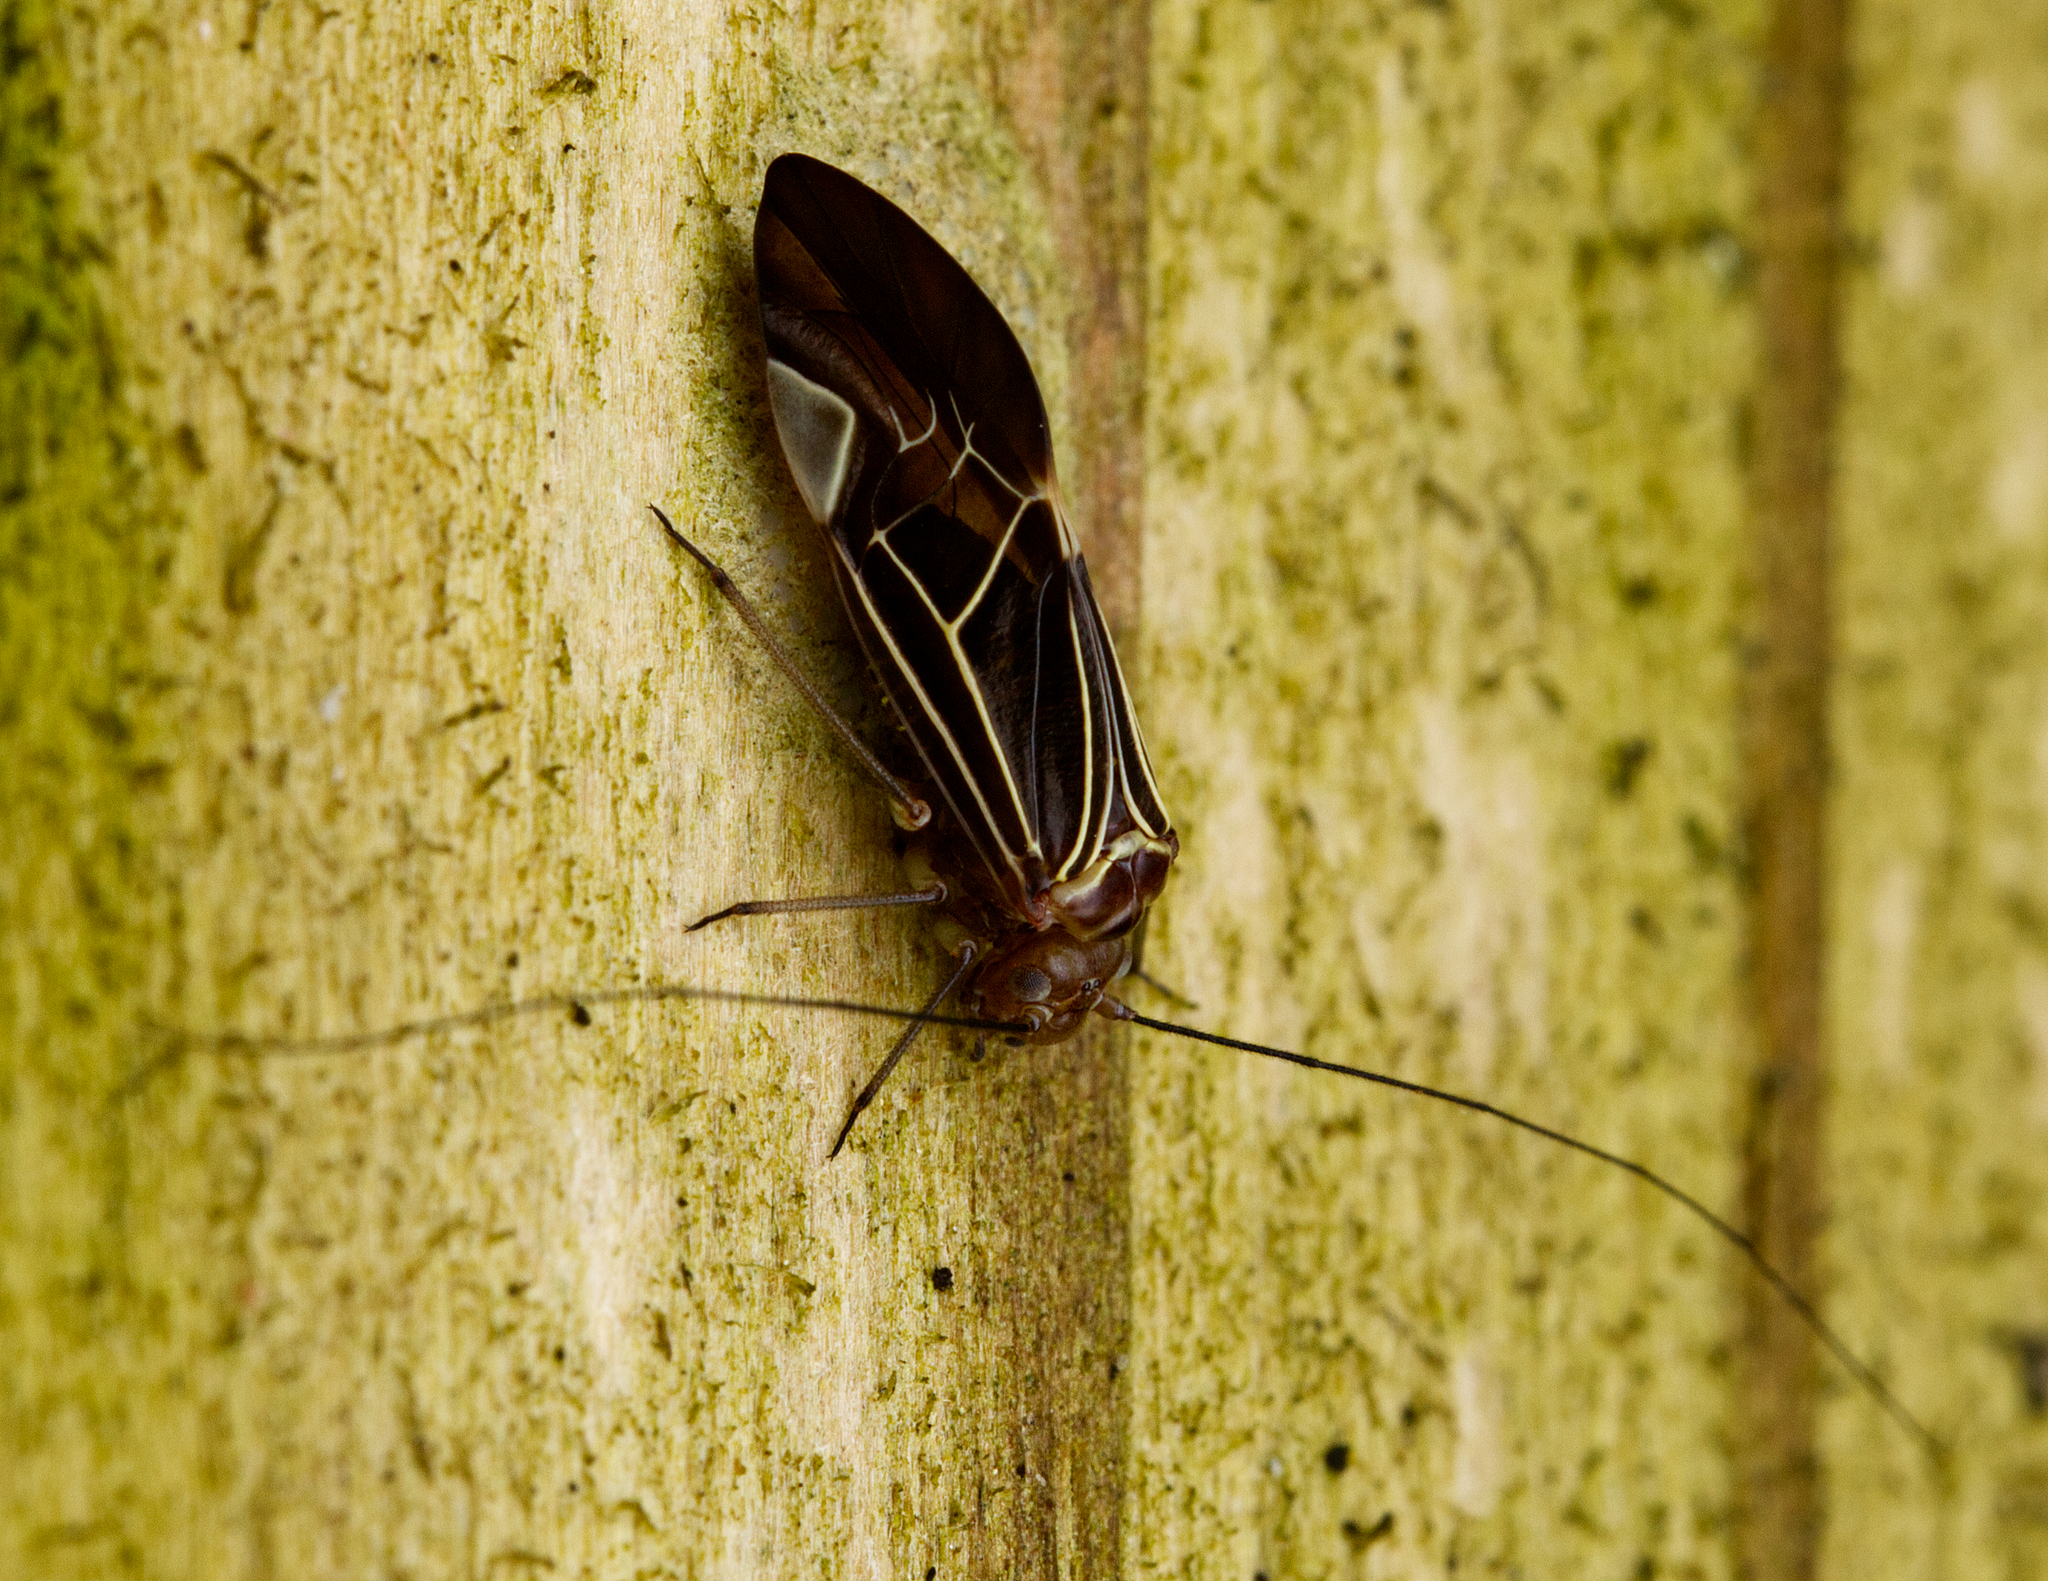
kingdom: Animalia
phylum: Arthropoda
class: Insecta
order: Psocodea
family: Psocidae
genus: Cerastipsocus
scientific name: Cerastipsocus venosus
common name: Tree cattle
